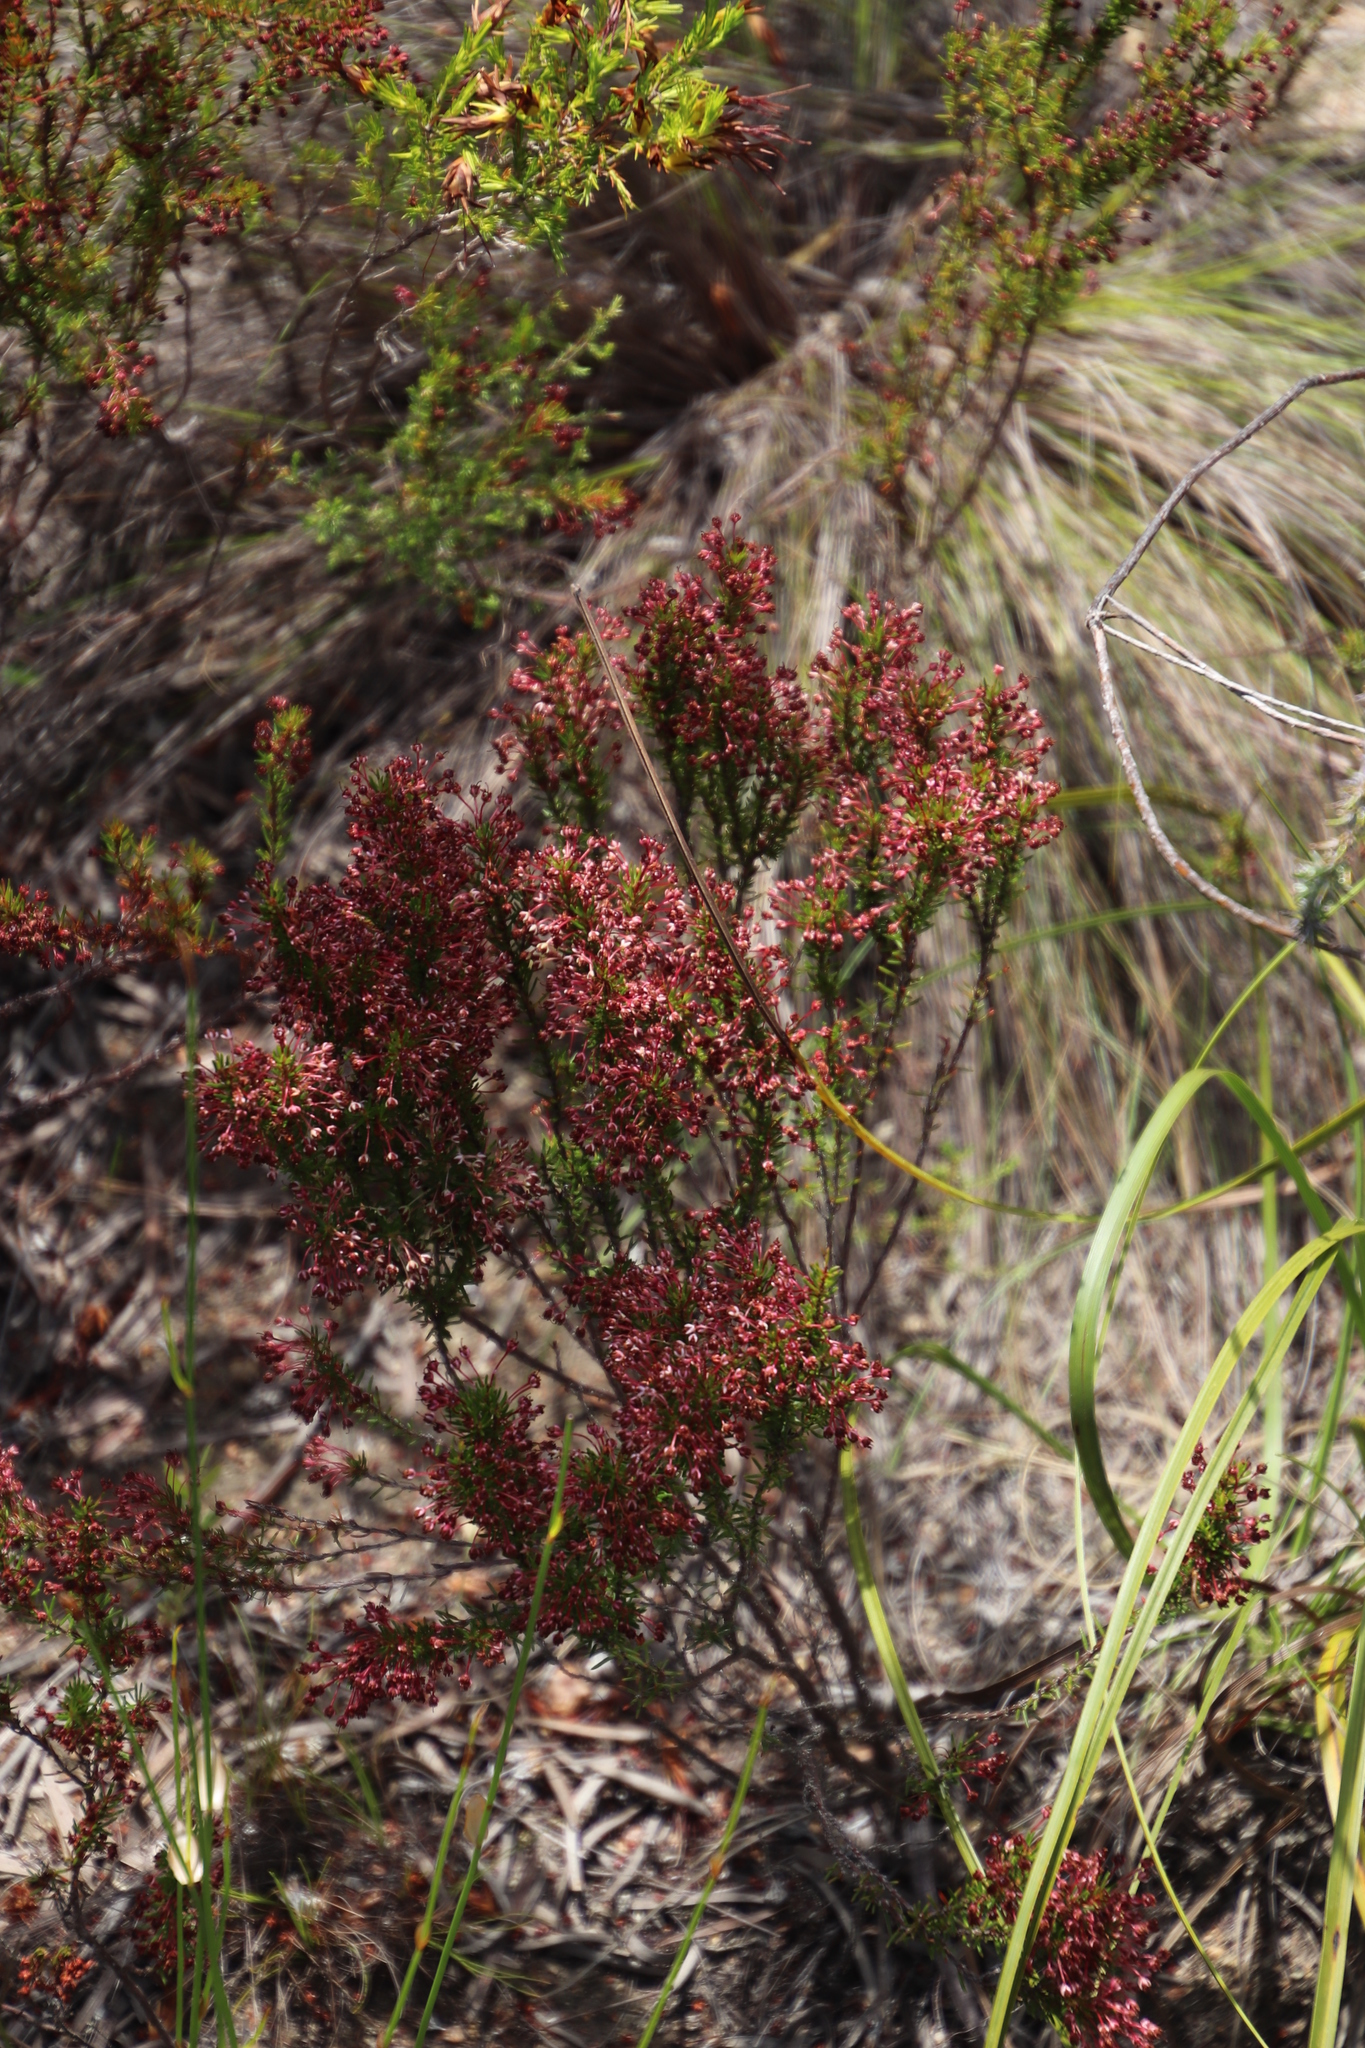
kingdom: Plantae
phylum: Tracheophyta
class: Magnoliopsida
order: Ericales
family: Ericaceae
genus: Erica
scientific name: Erica rubiginosa
